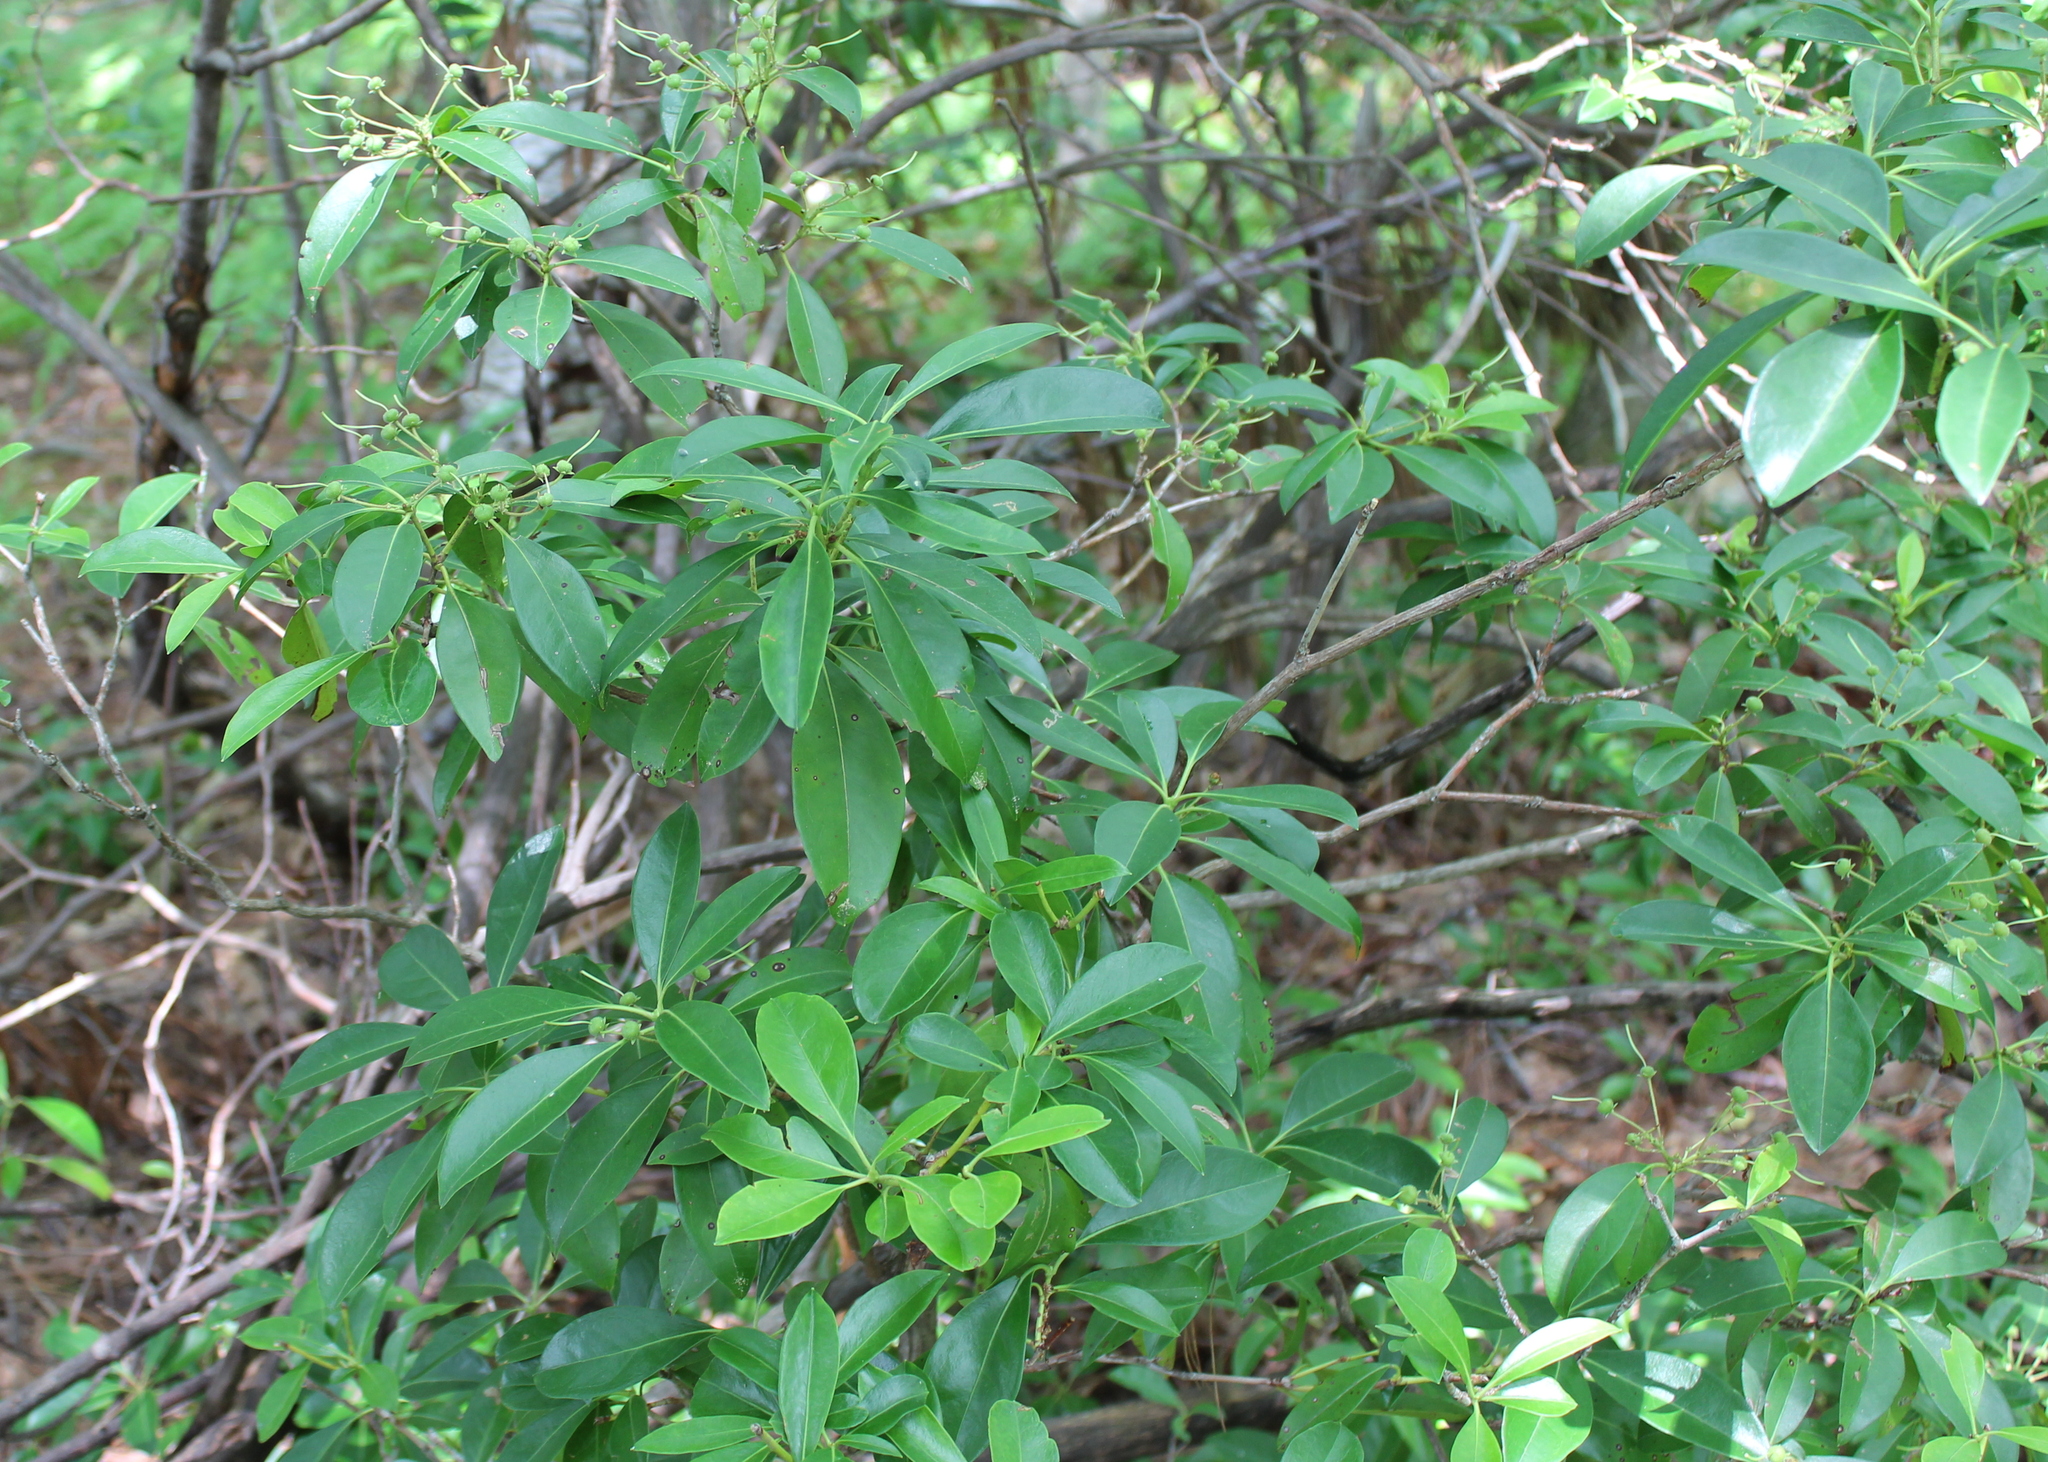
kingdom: Plantae
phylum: Tracheophyta
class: Magnoliopsida
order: Ericales
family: Ericaceae
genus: Kalmia
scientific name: Kalmia latifolia
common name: Mountain-laurel
